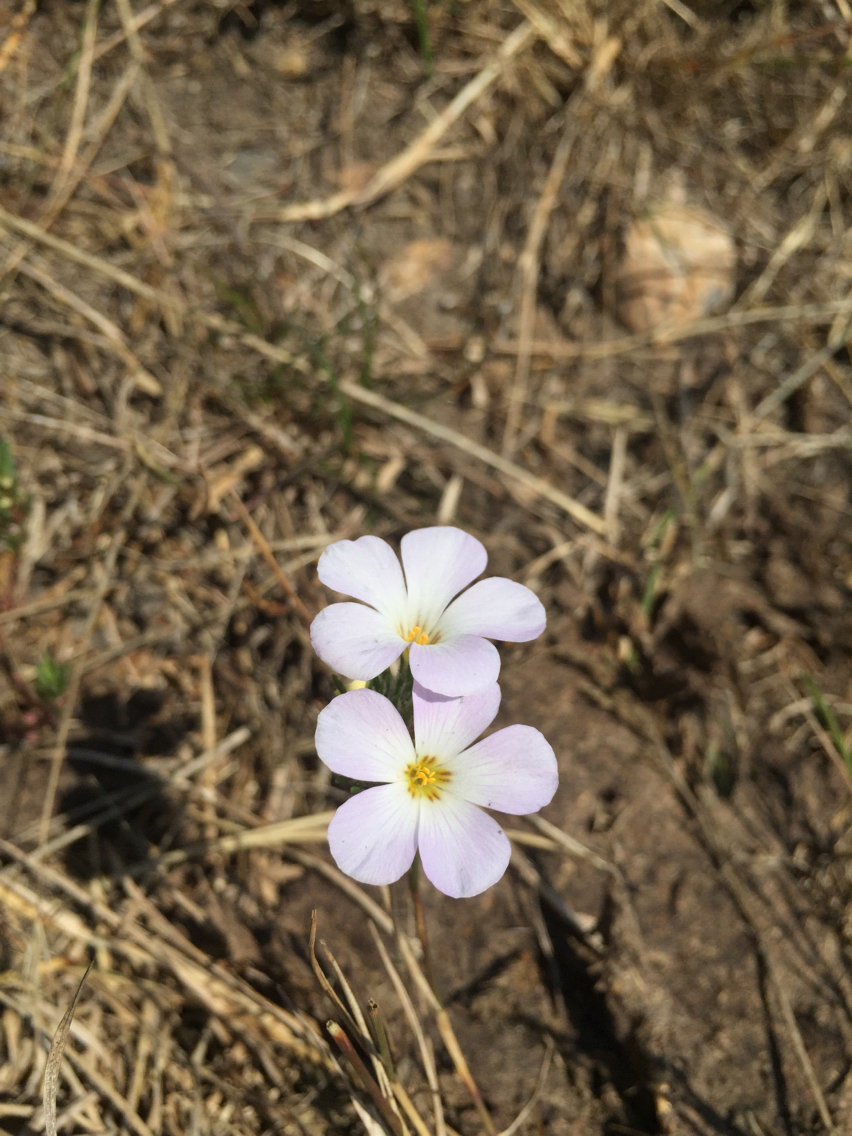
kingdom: Plantae
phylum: Tracheophyta
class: Magnoliopsida
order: Ericales
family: Polemoniaceae
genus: Leptosiphon
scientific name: Leptosiphon grandiflorus
